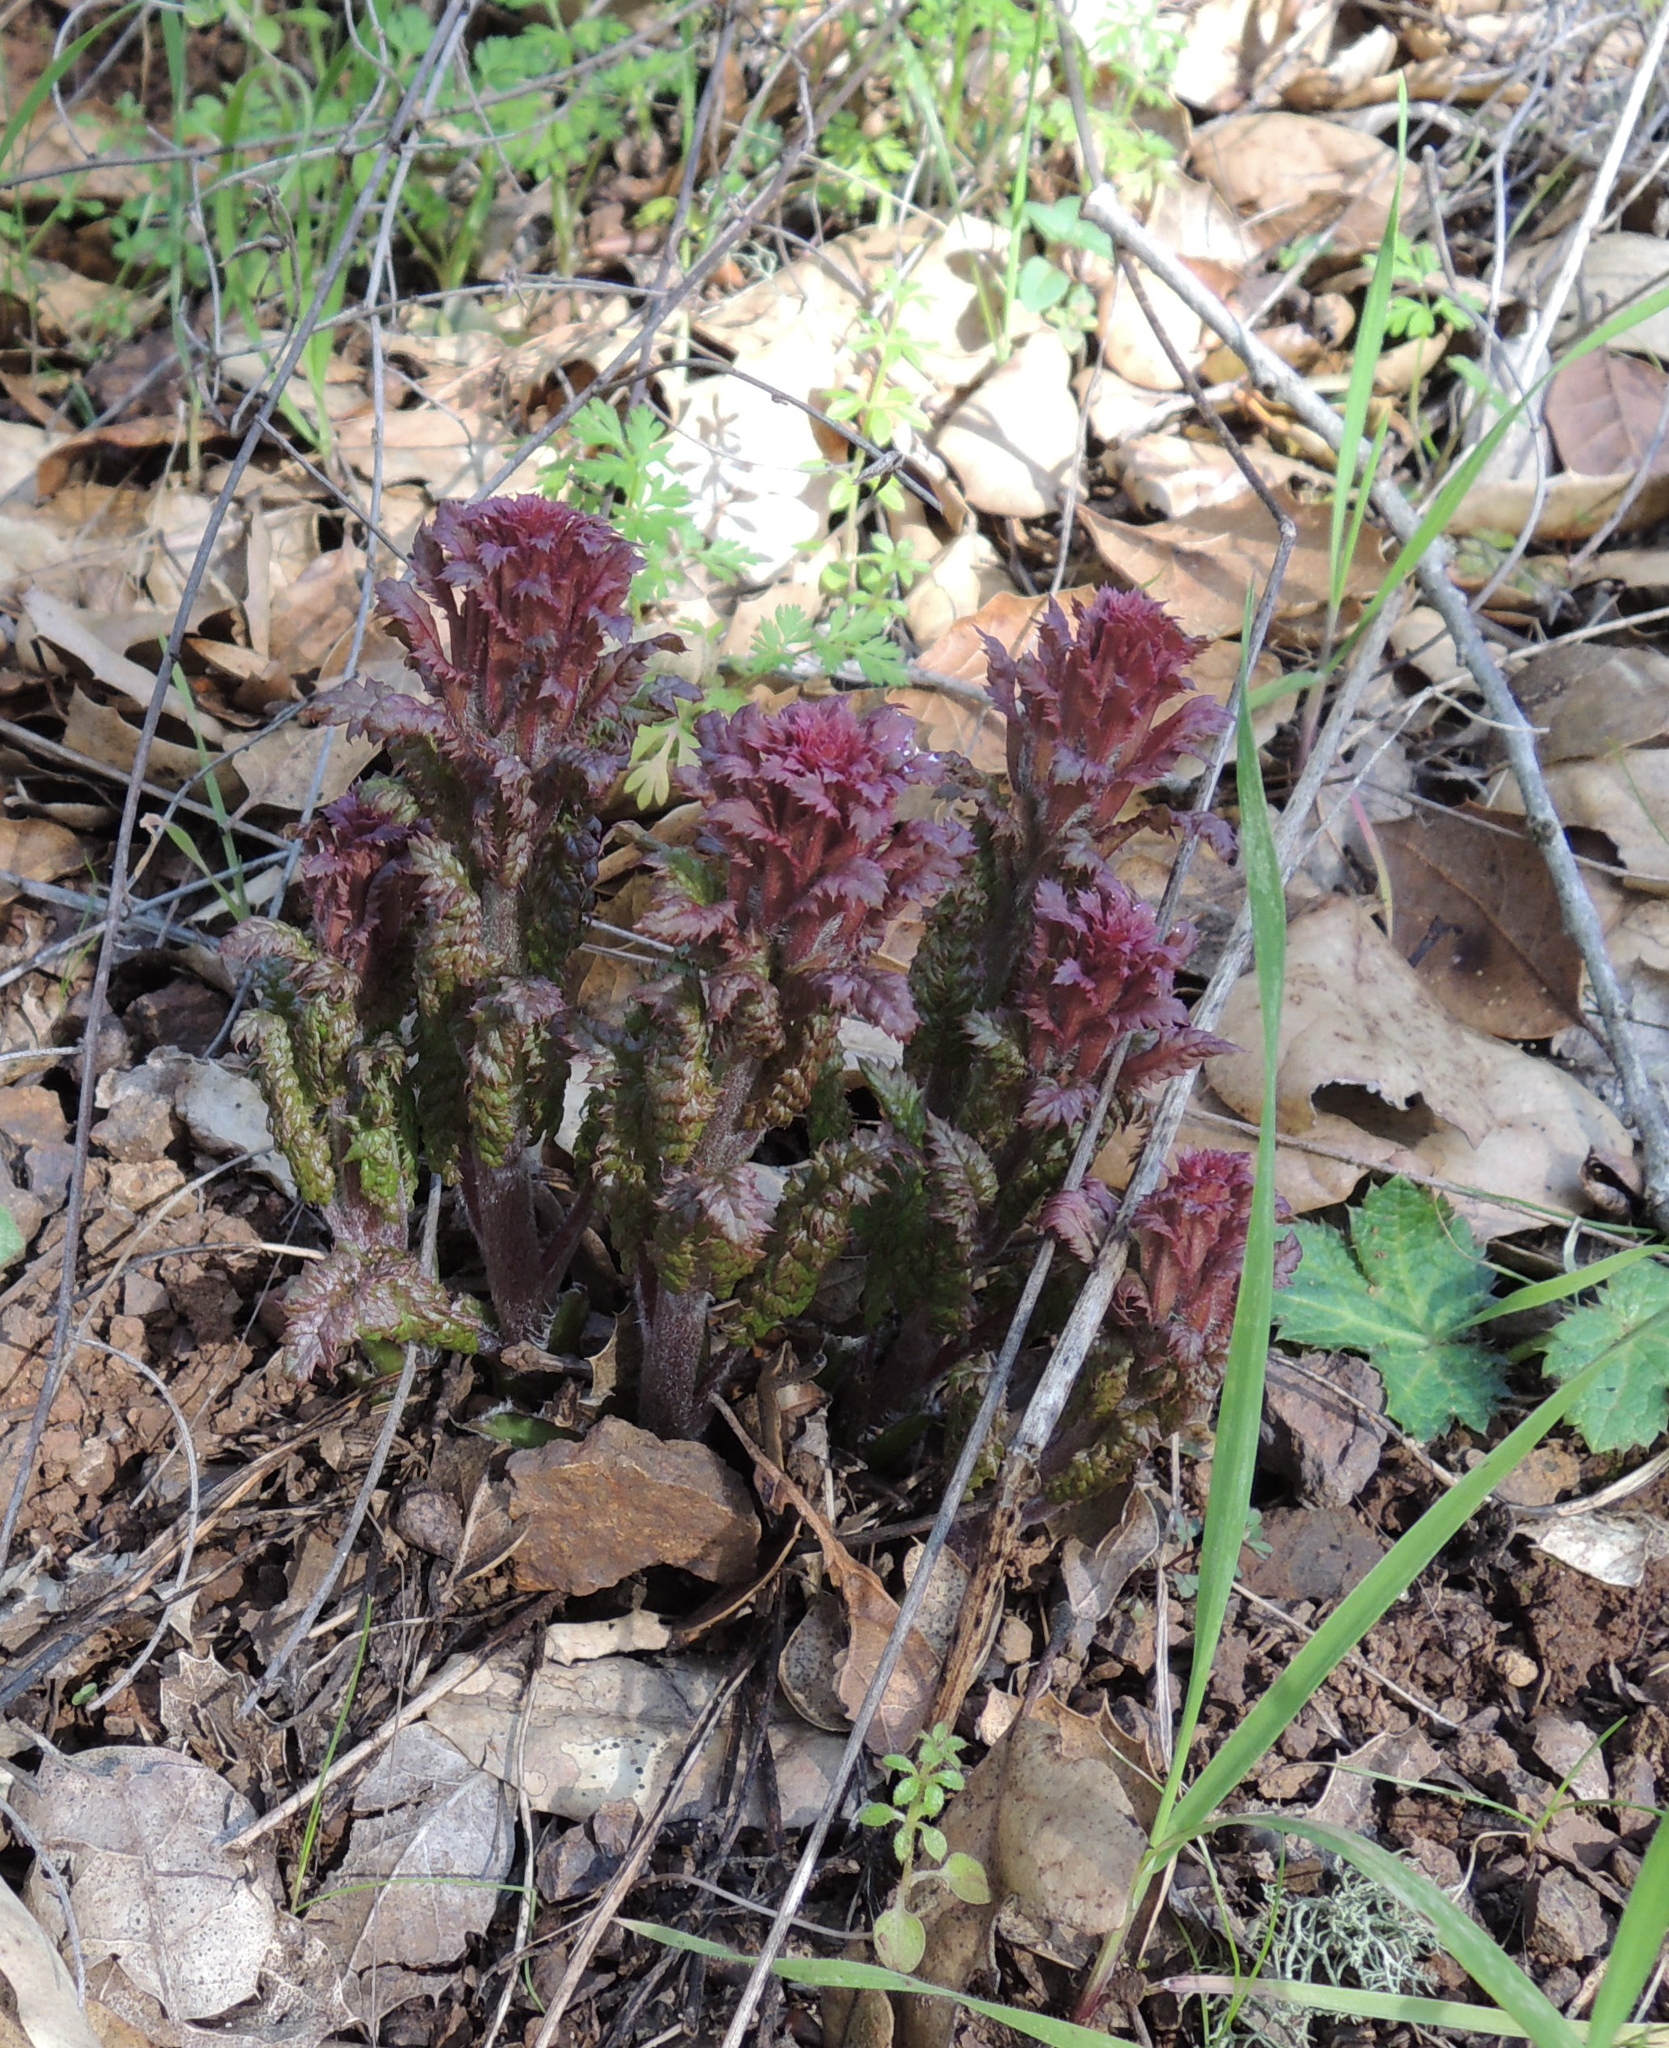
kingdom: Plantae
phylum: Tracheophyta
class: Magnoliopsida
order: Lamiales
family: Orobanchaceae
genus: Pedicularis
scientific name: Pedicularis densiflora
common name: Indian warrior
